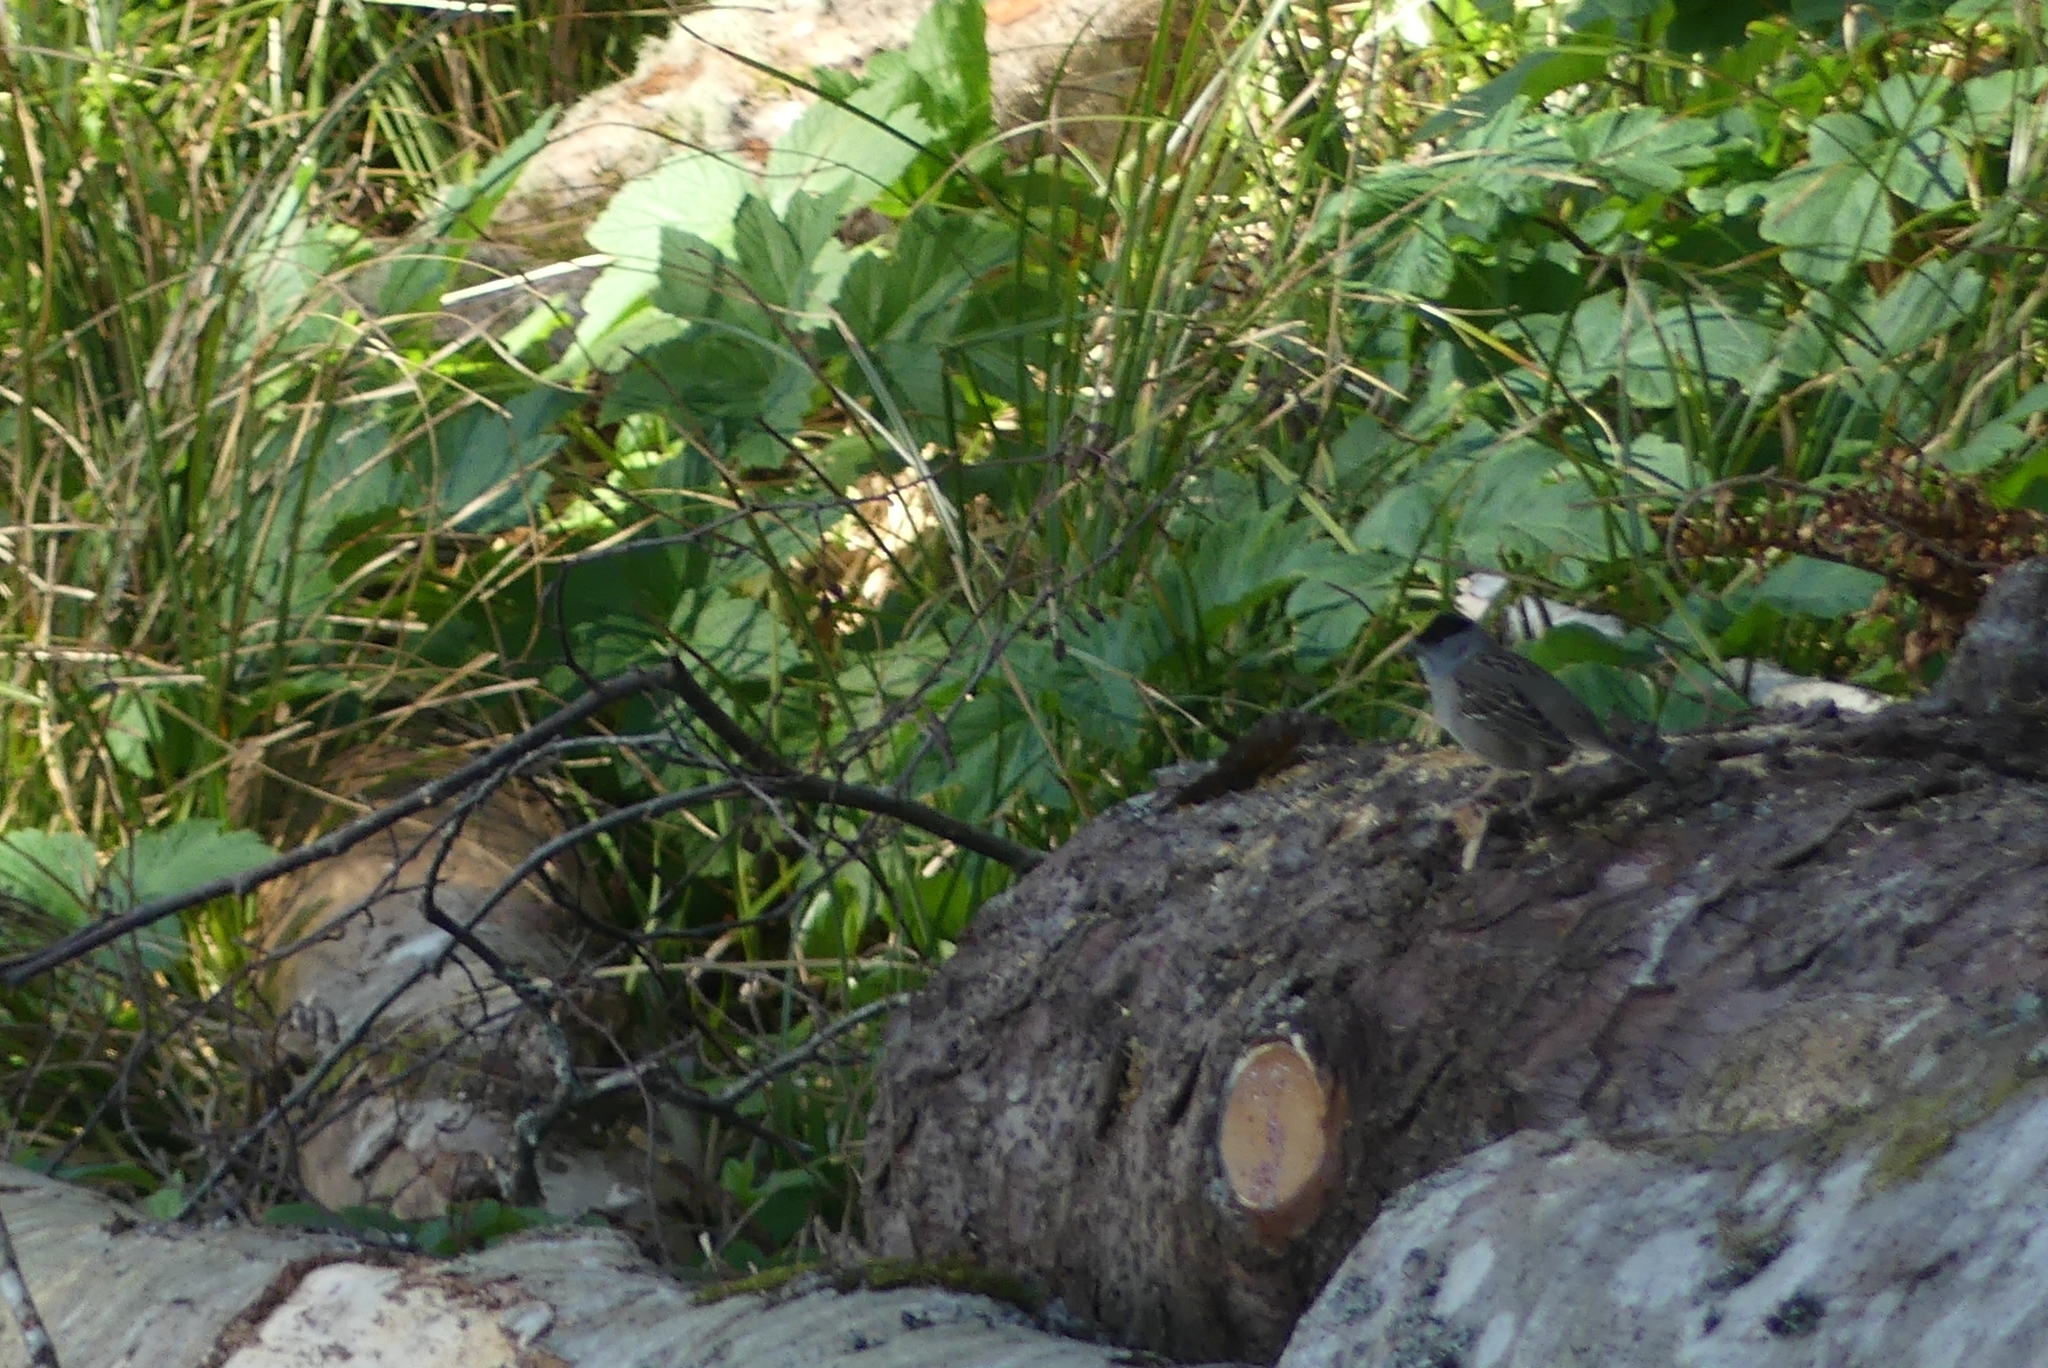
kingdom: Animalia
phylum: Chordata
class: Aves
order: Passeriformes
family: Passerellidae
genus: Zonotrichia
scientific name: Zonotrichia atricapilla
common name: Golden-crowned sparrow
